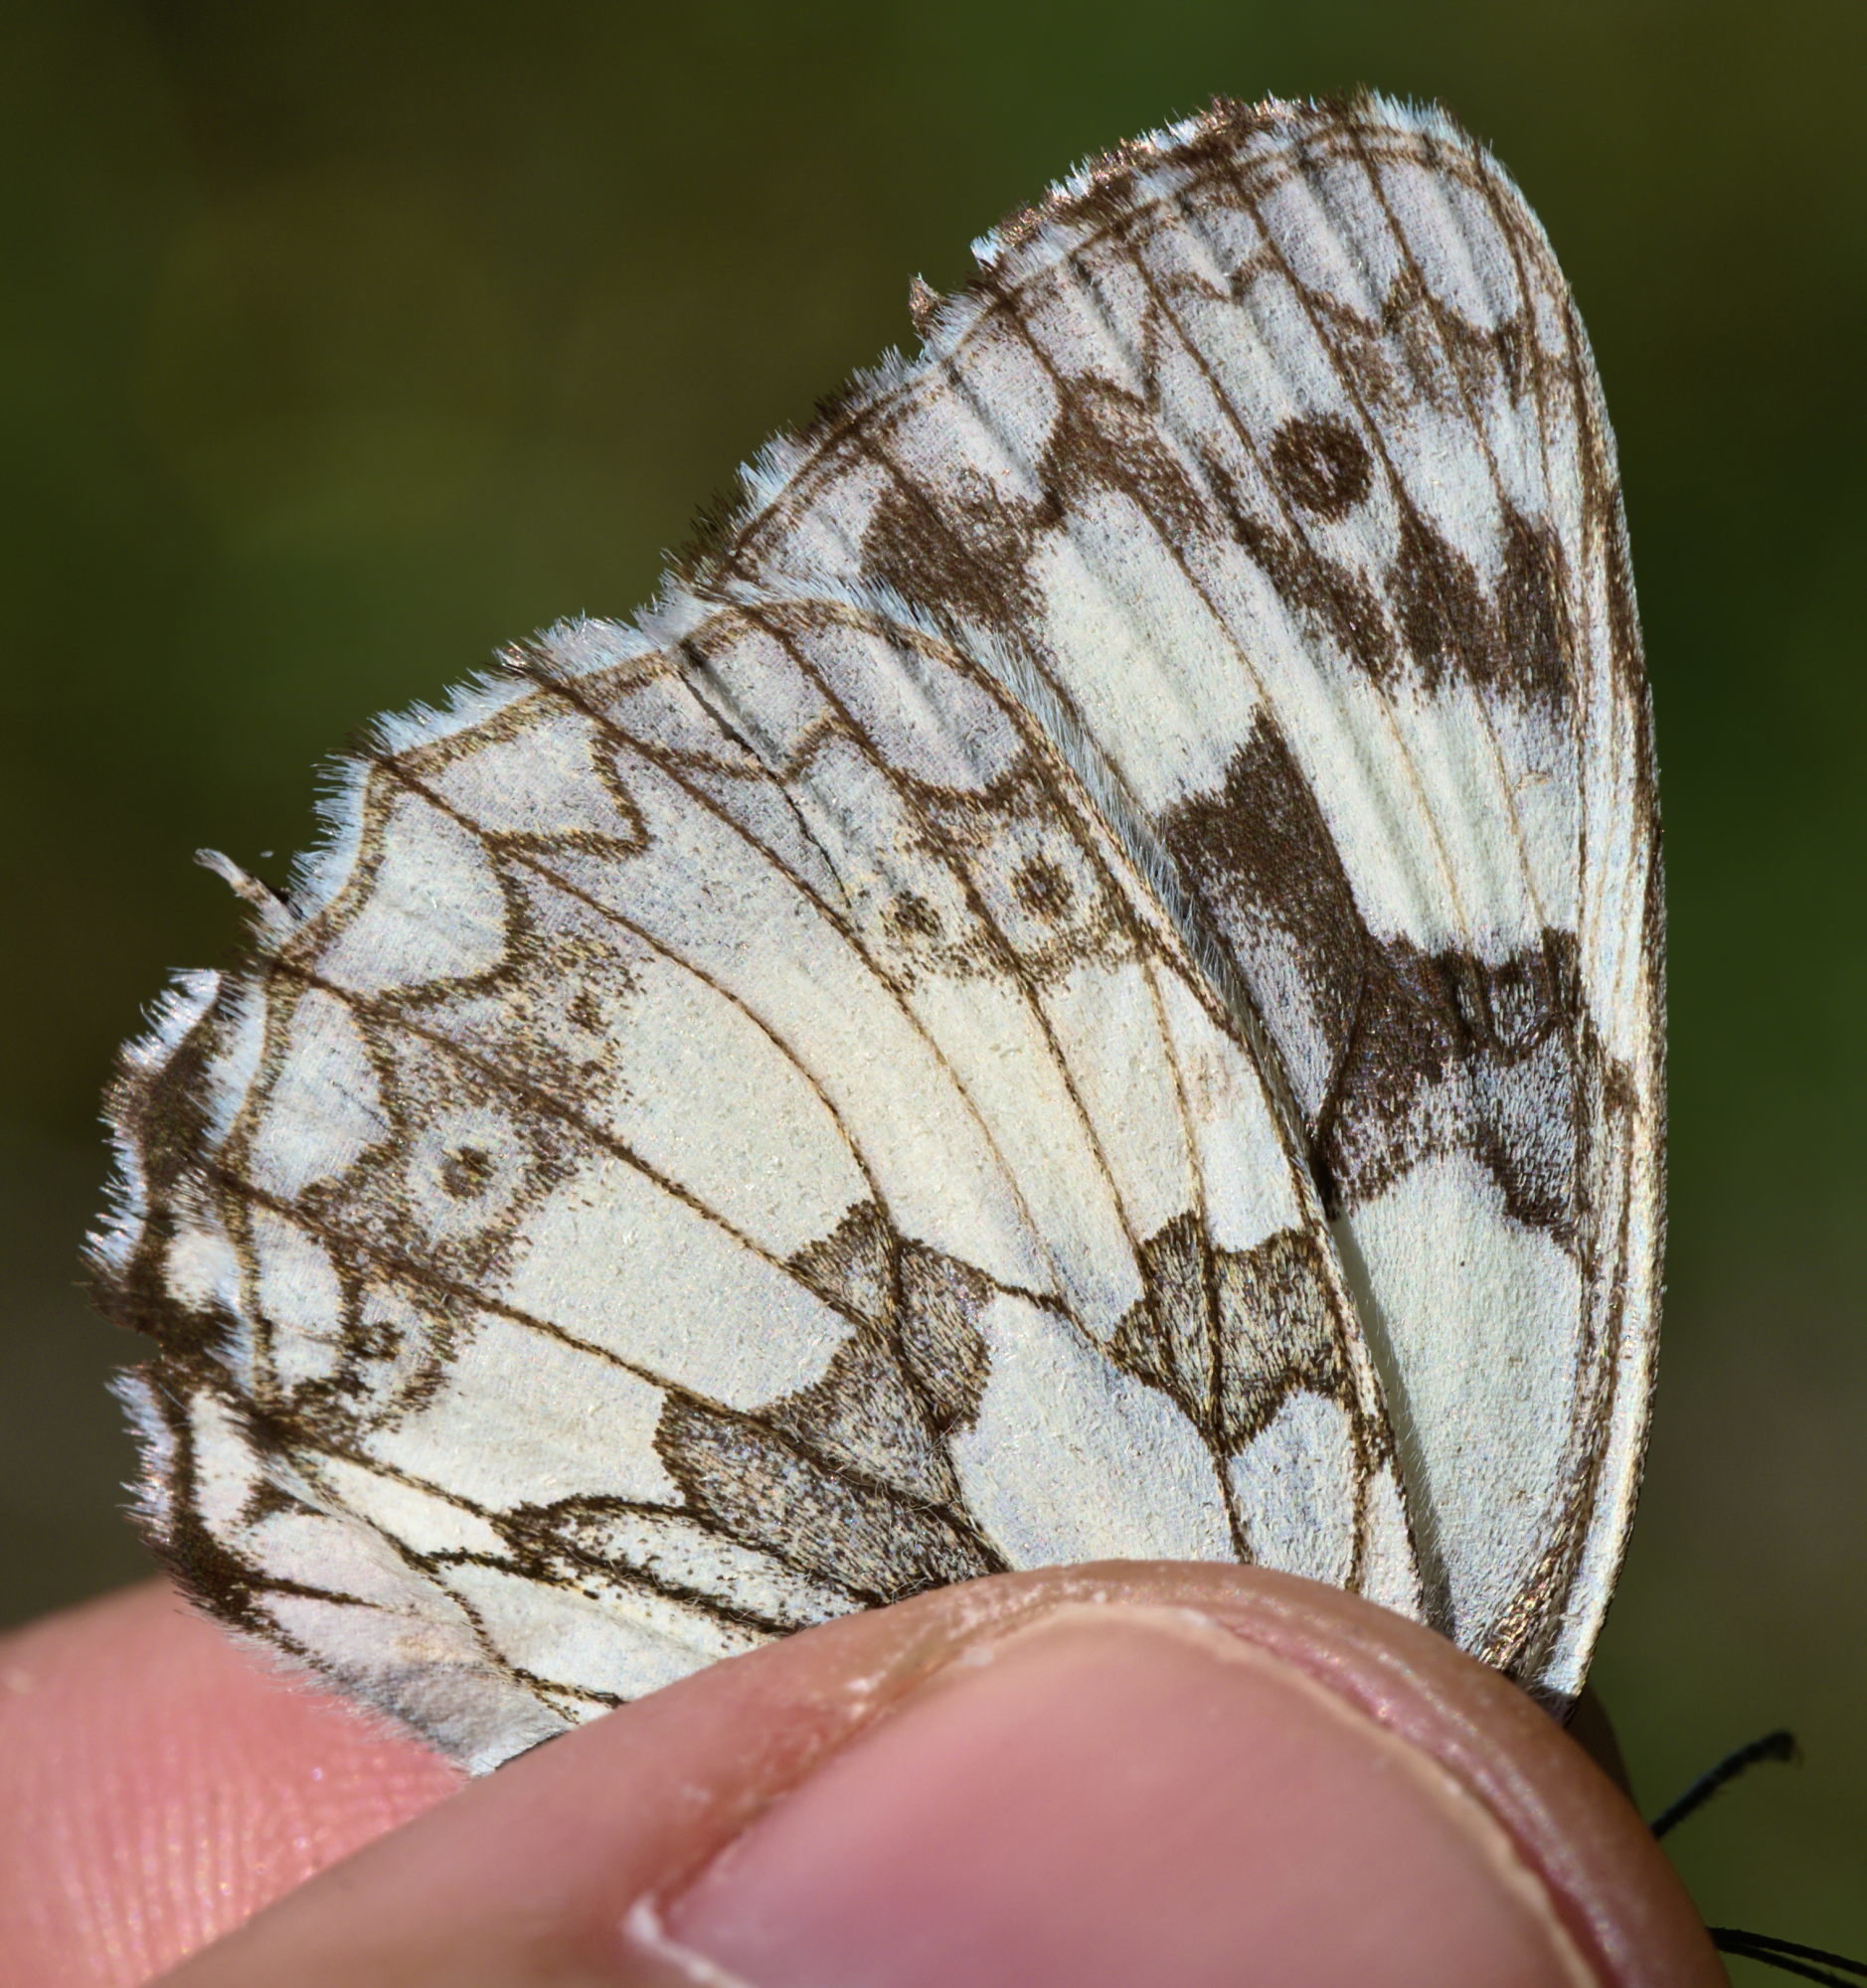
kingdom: Animalia
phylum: Arthropoda
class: Insecta
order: Lepidoptera
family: Nymphalidae
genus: Melanargia
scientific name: Melanargia galathea
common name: Marbled white
